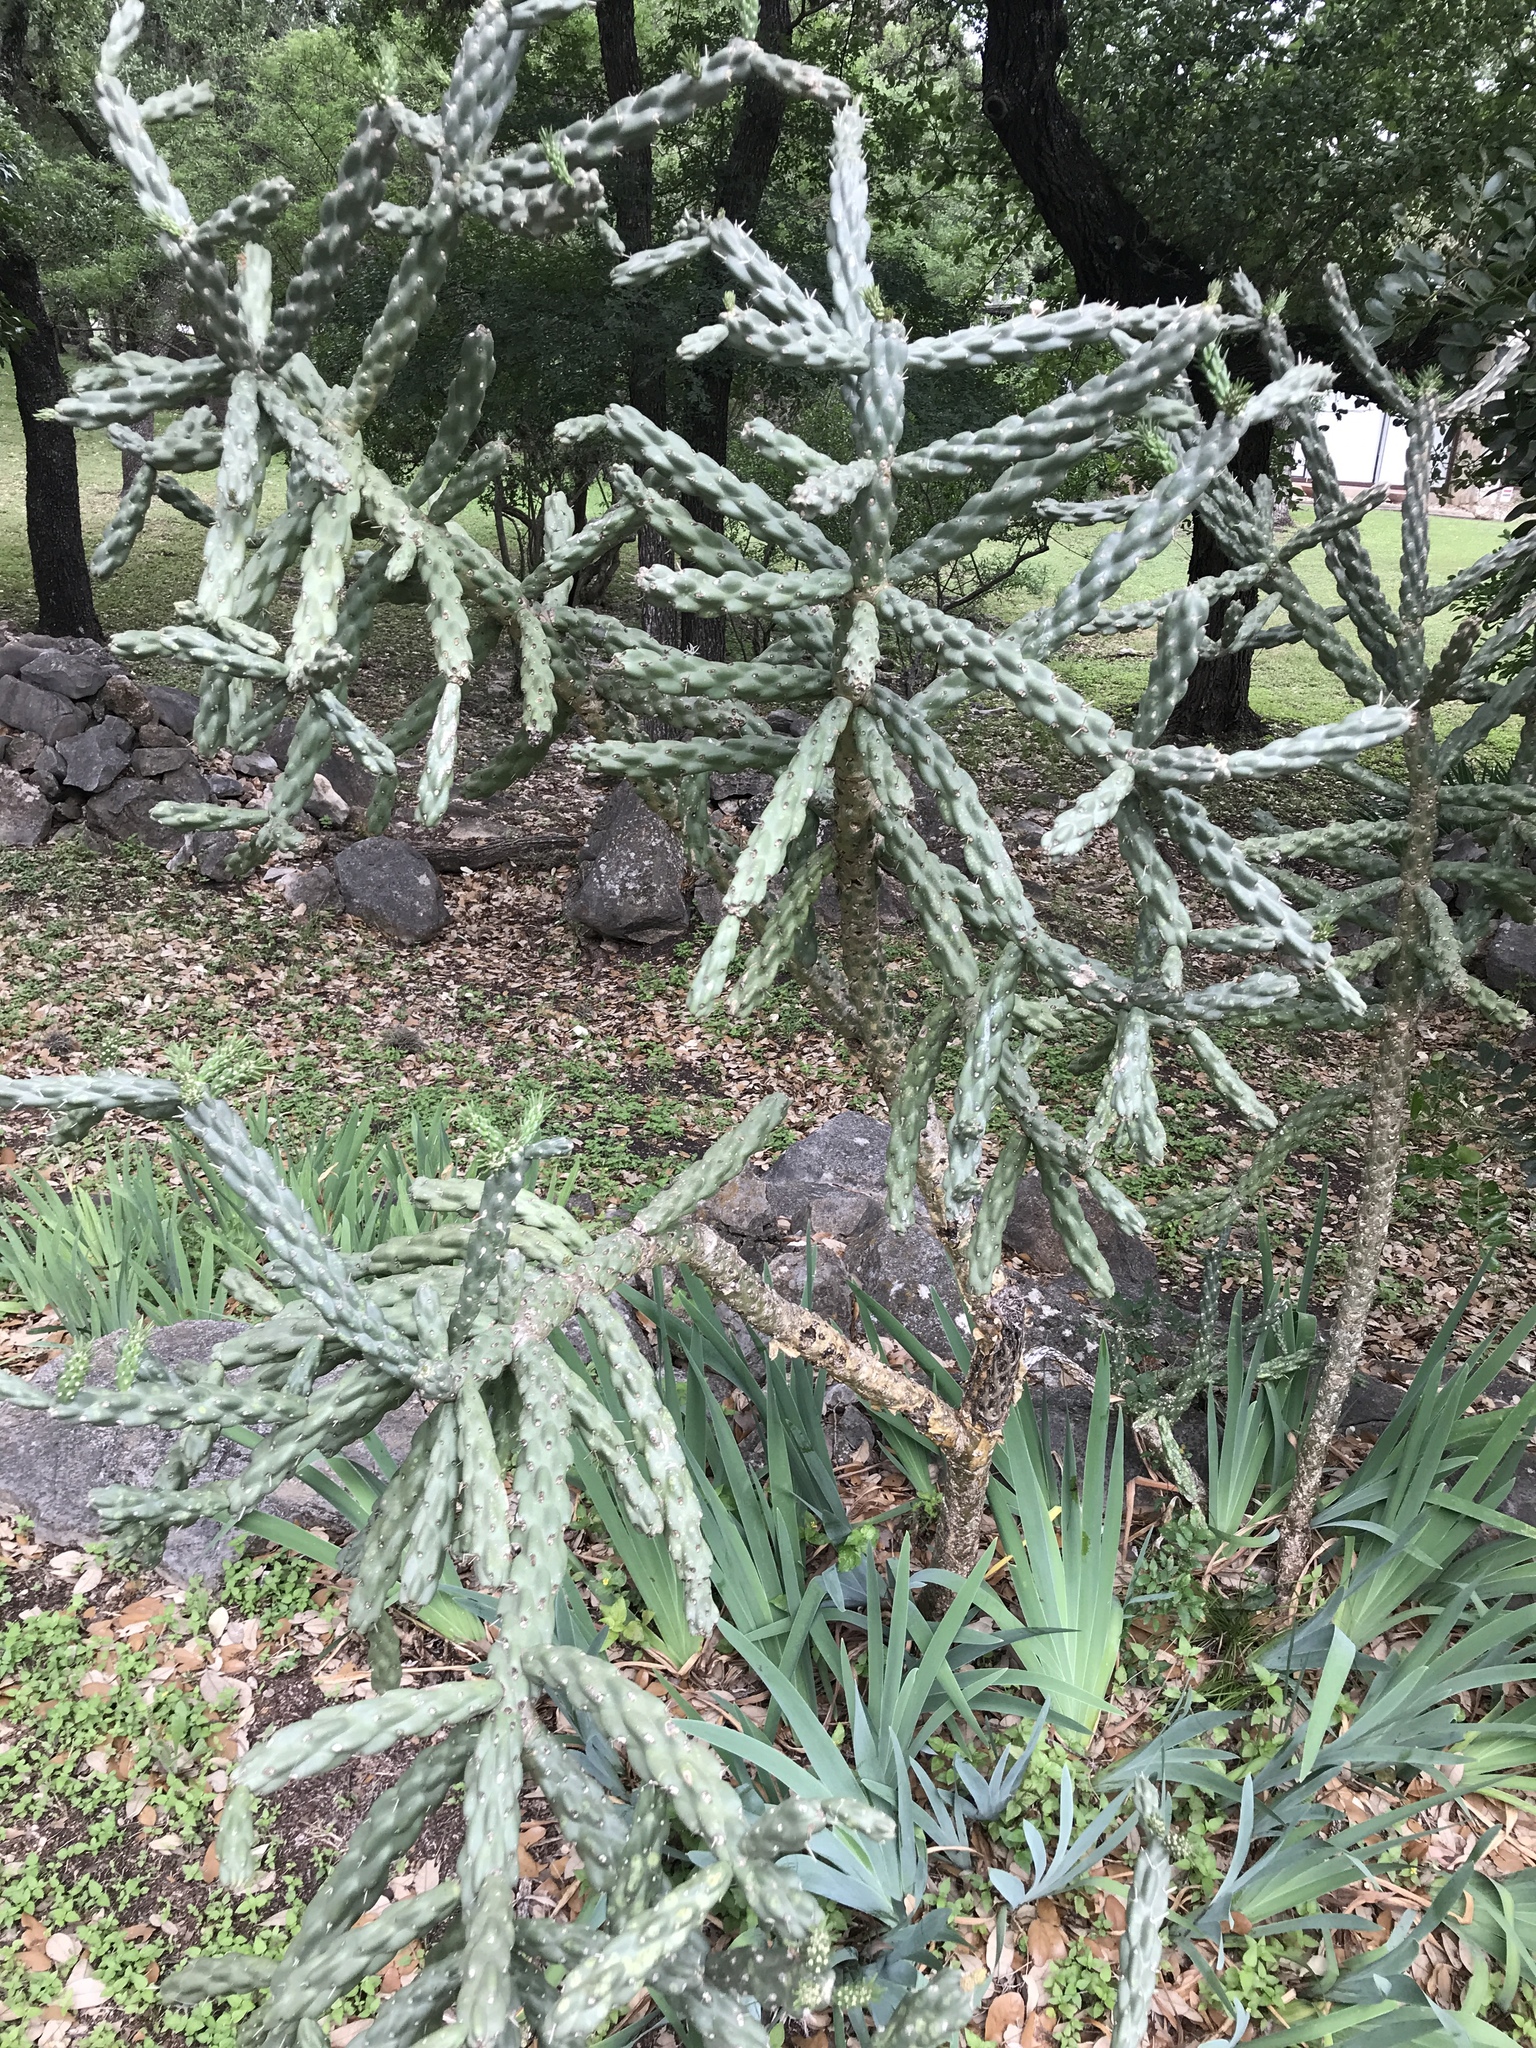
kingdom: Plantae
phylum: Tracheophyta
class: Magnoliopsida
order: Caryophyllales
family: Cactaceae
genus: Cylindropuntia
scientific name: Cylindropuntia imbricata
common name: Candelabrum cactus
